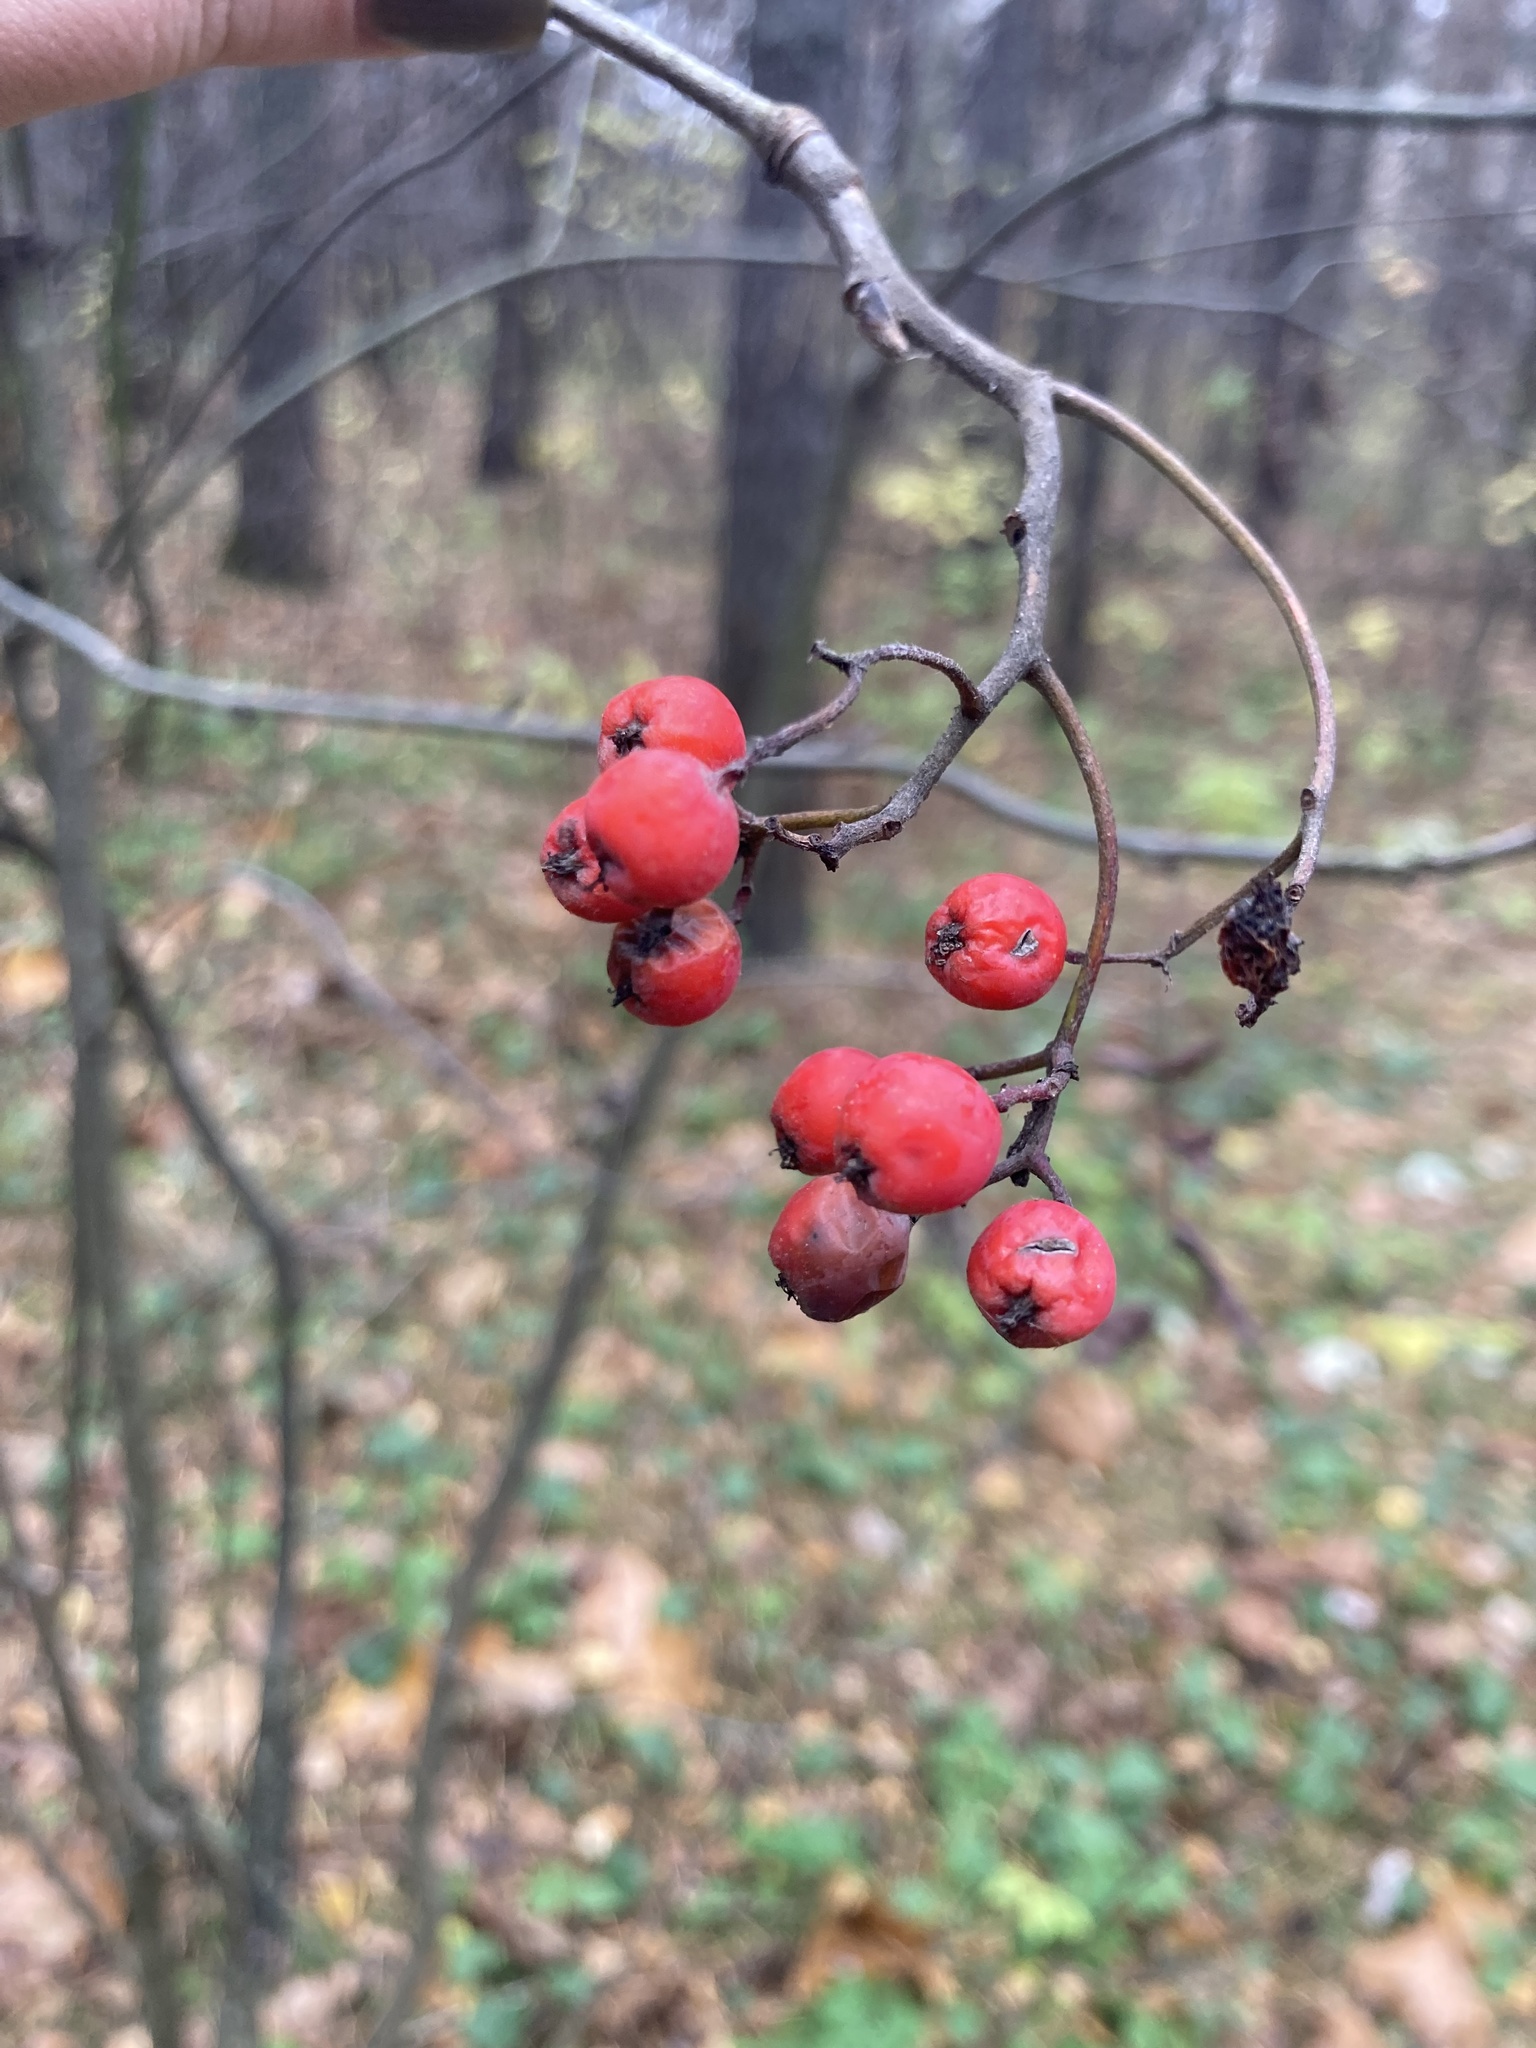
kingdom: Plantae
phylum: Tracheophyta
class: Magnoliopsida
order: Rosales
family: Rosaceae
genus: Sorbus
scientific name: Sorbus aucuparia
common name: Rowan
